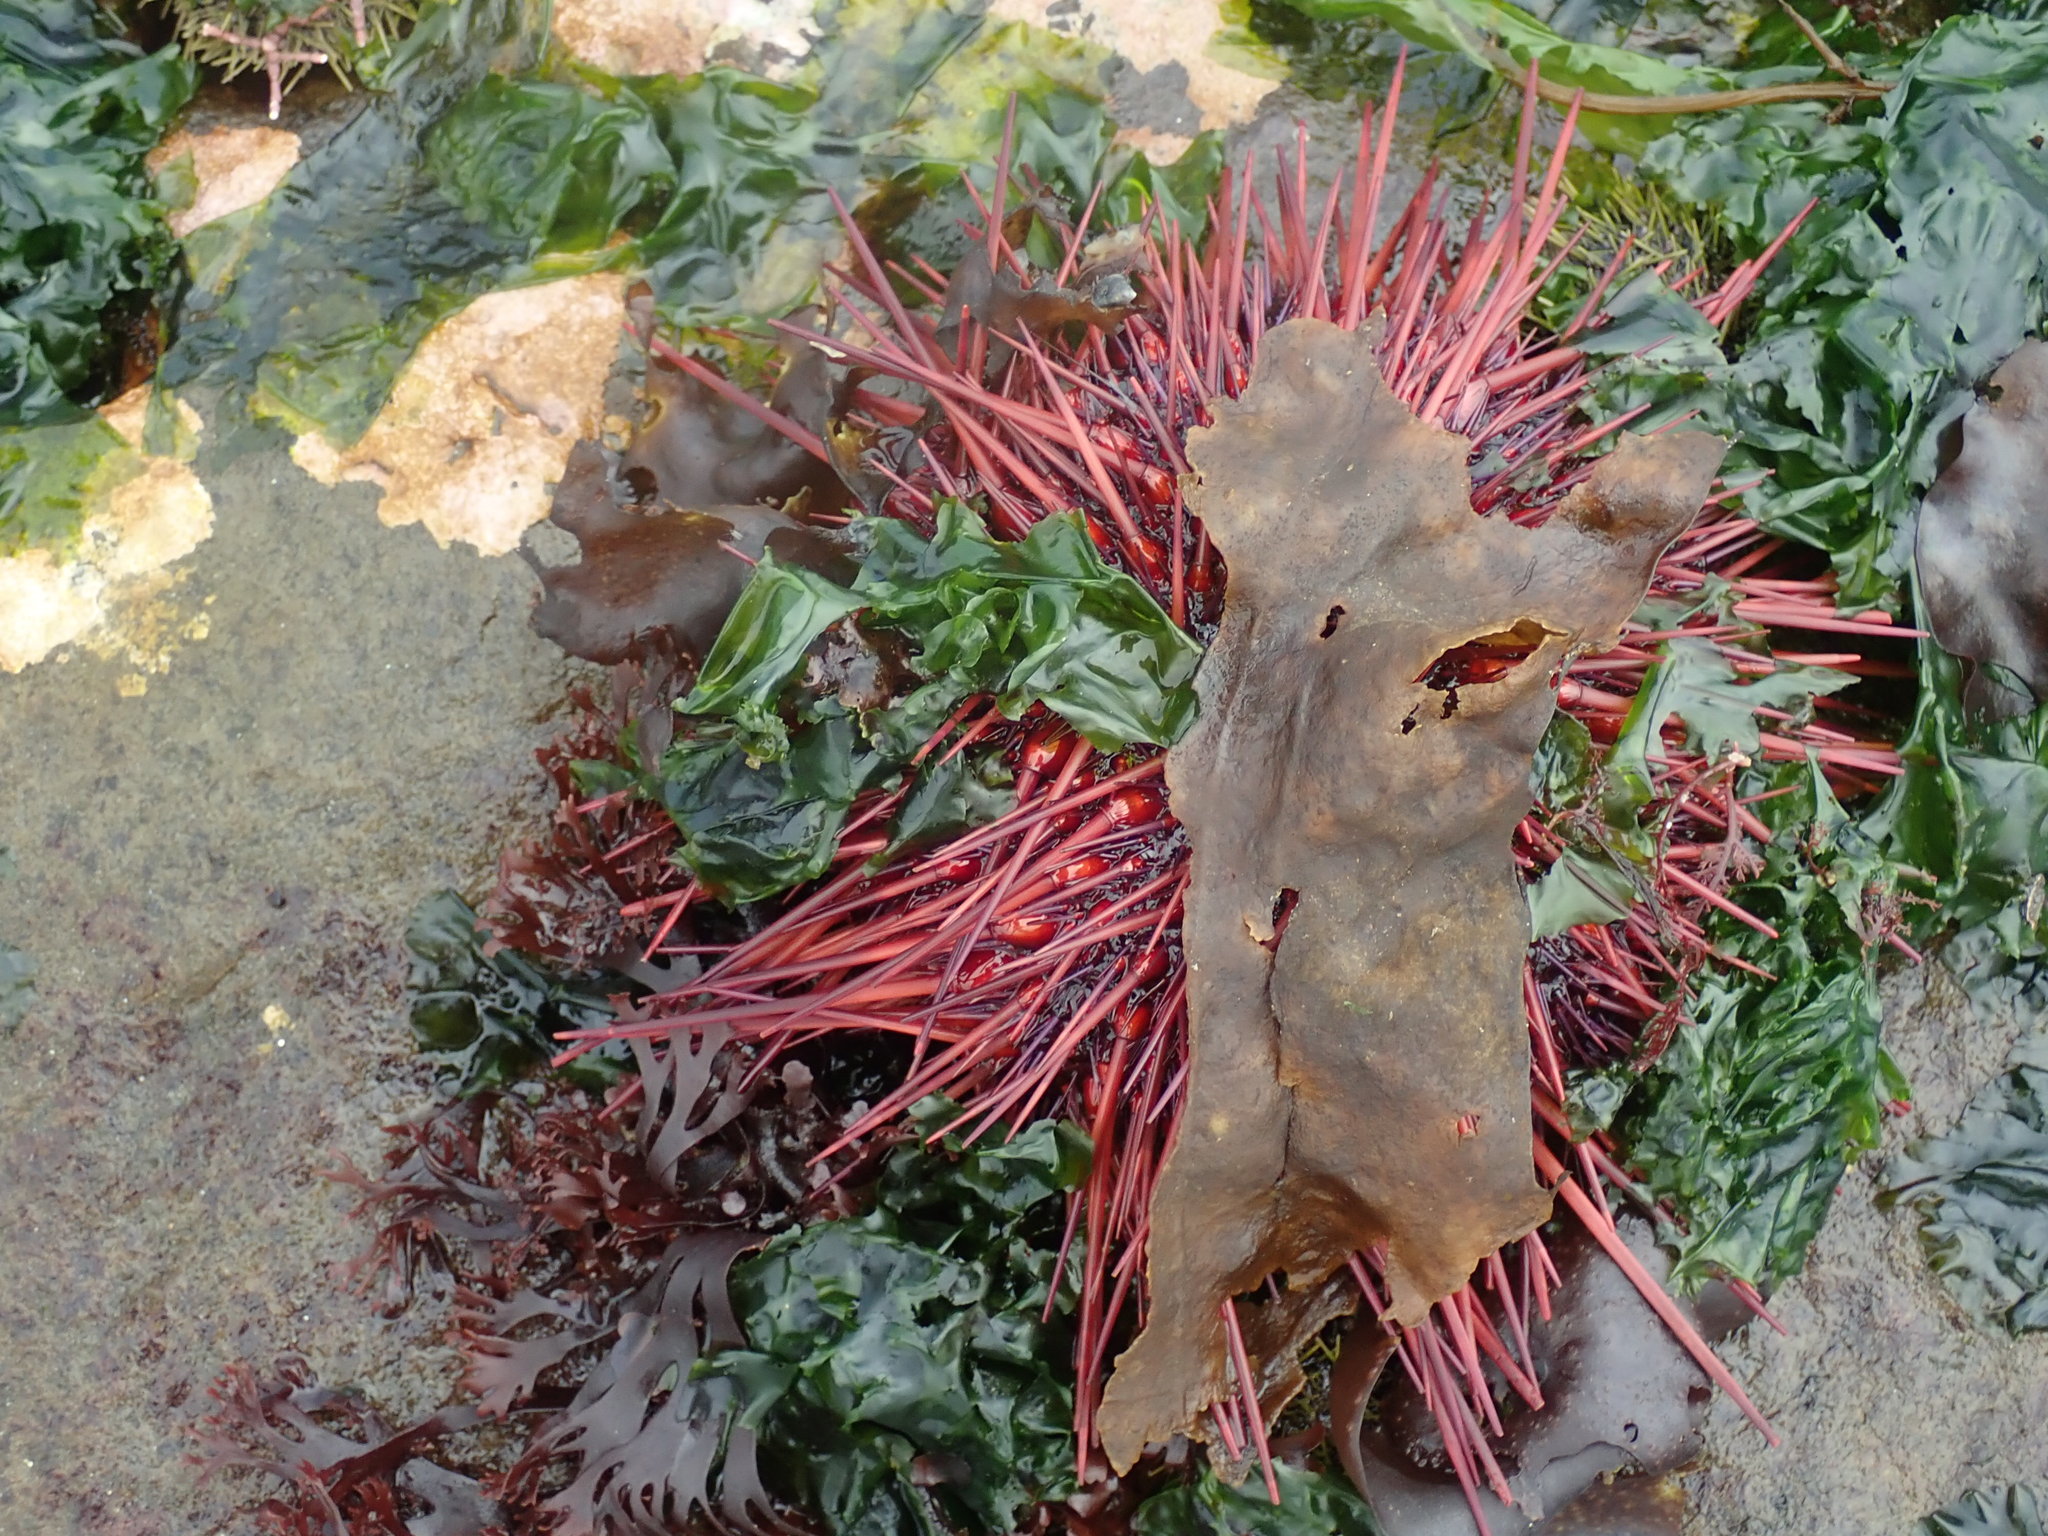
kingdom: Animalia
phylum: Echinodermata
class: Echinoidea
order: Camarodonta
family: Strongylocentrotidae
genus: Mesocentrotus
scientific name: Mesocentrotus franciscanus
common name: Red sea urchin
